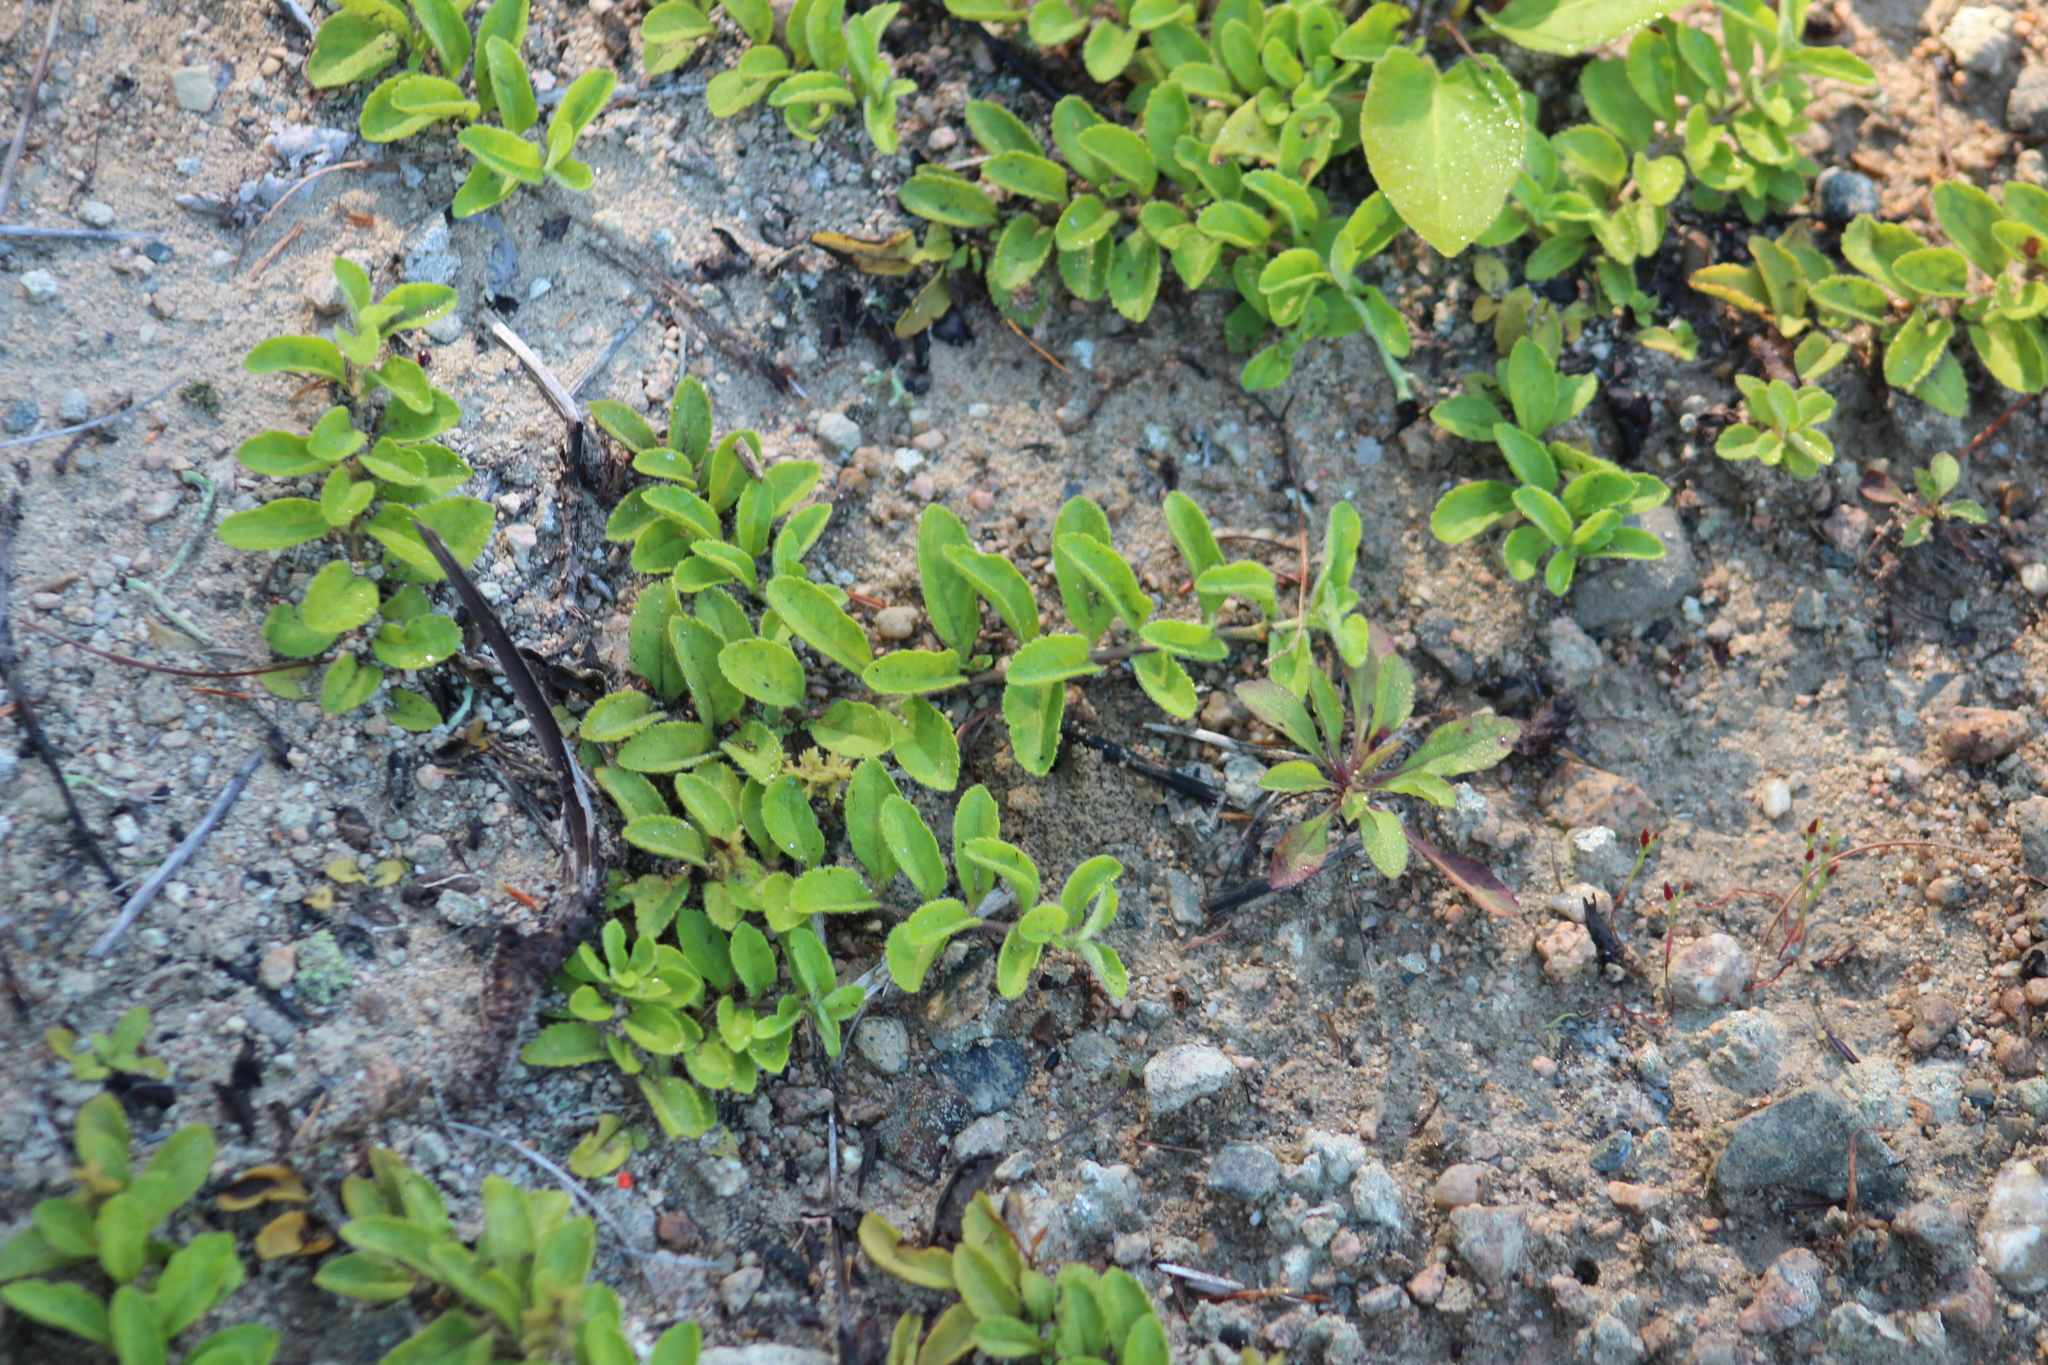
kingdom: Plantae
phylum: Tracheophyta
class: Magnoliopsida
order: Lamiales
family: Plantaginaceae
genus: Veronica
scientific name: Veronica officinalis
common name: Common speedwell
